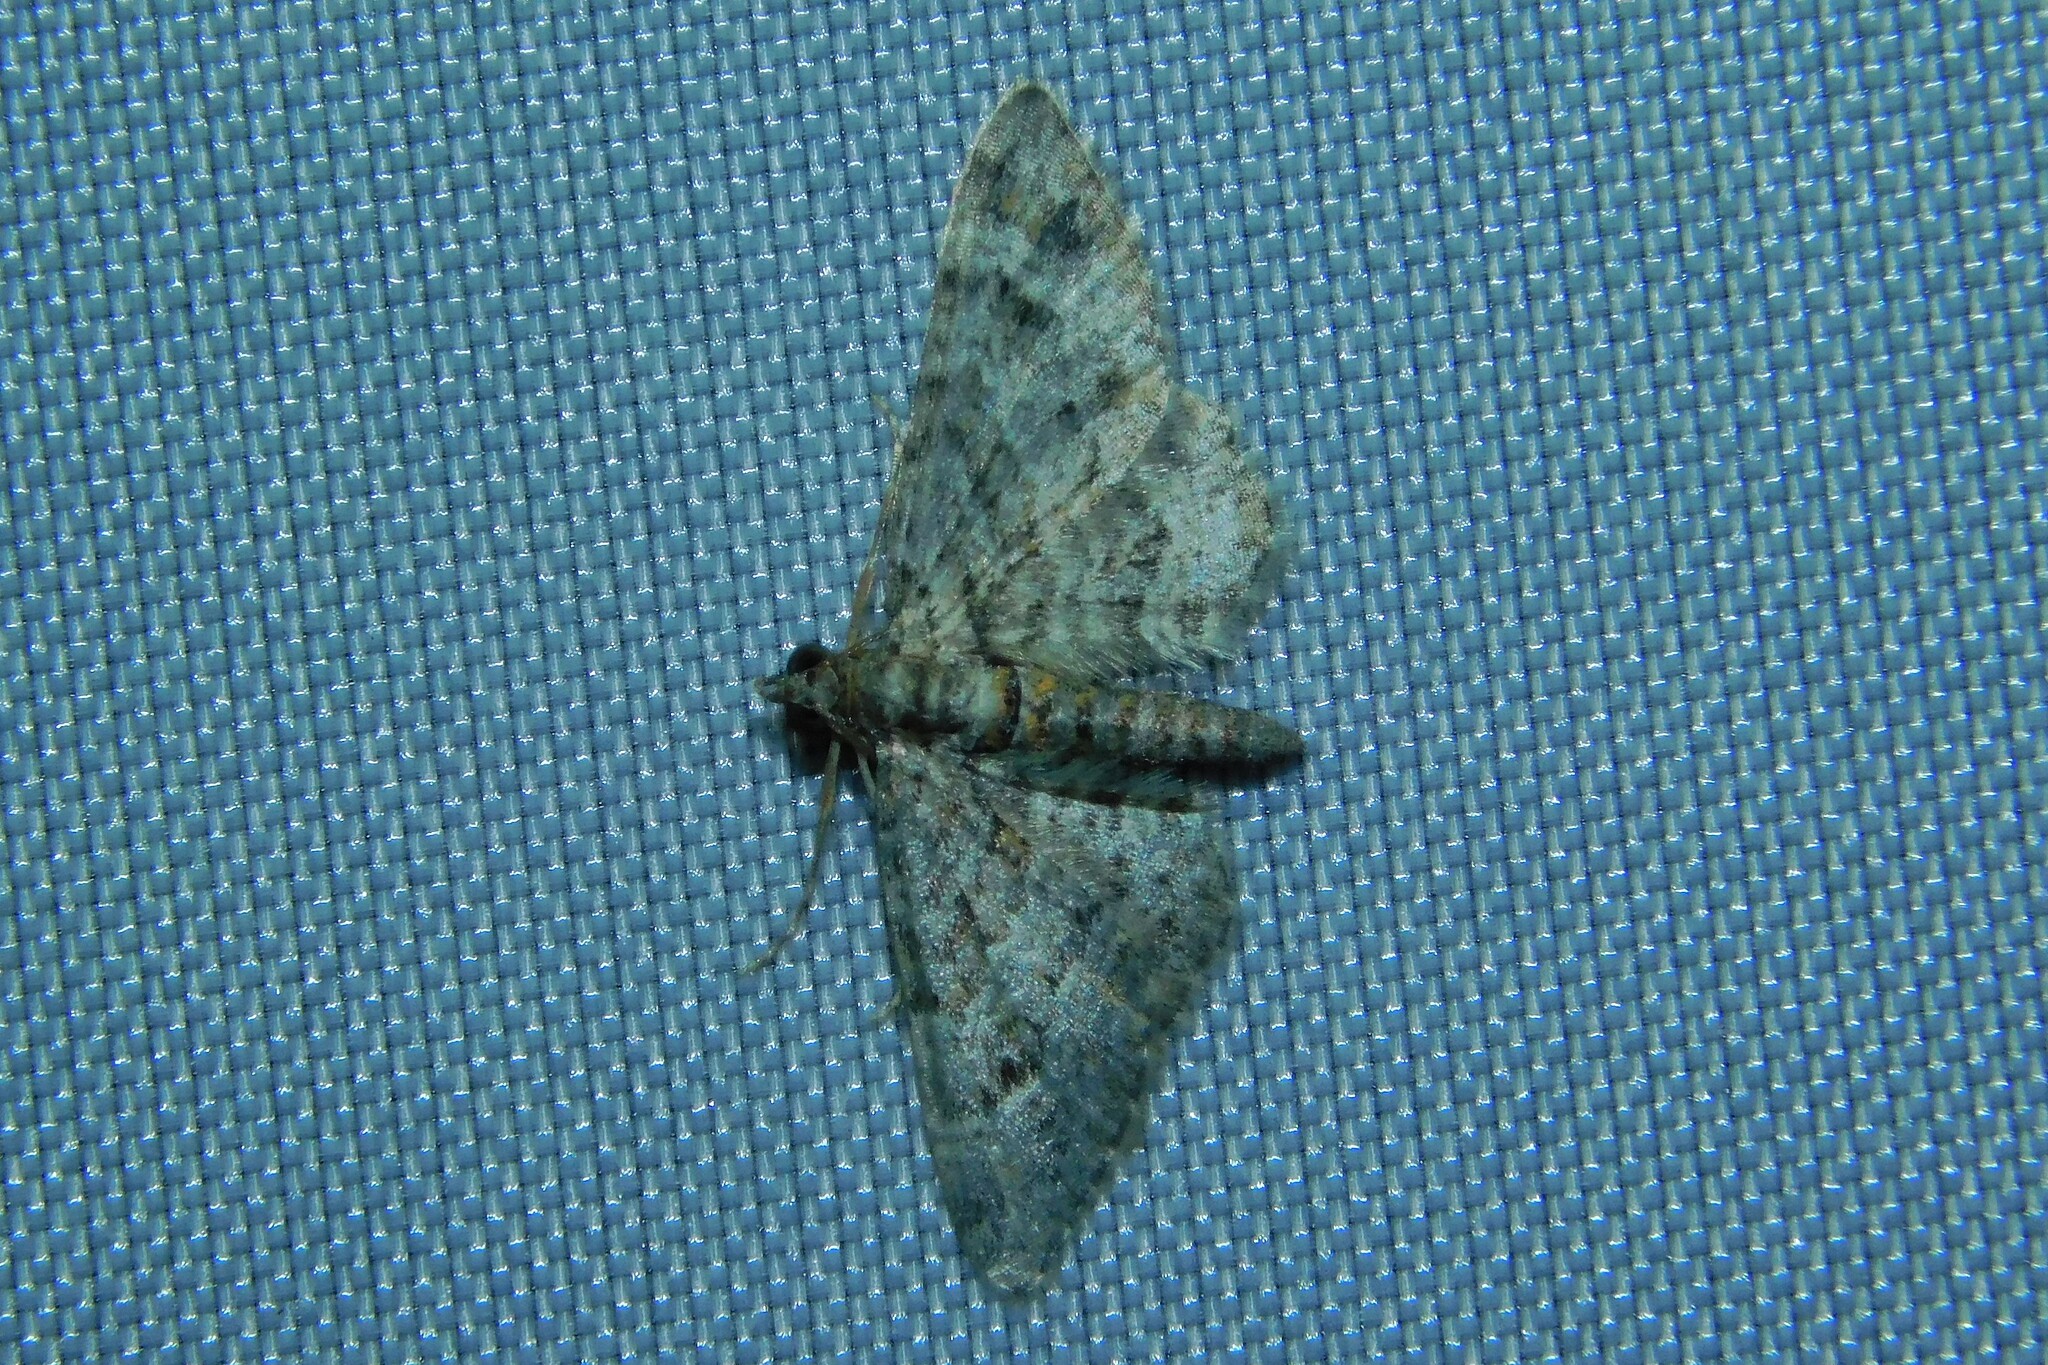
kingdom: Animalia
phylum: Arthropoda
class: Insecta
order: Lepidoptera
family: Geometridae
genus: Gymnoscelis
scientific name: Gymnoscelis rufifasciata
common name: Double-striped pug
